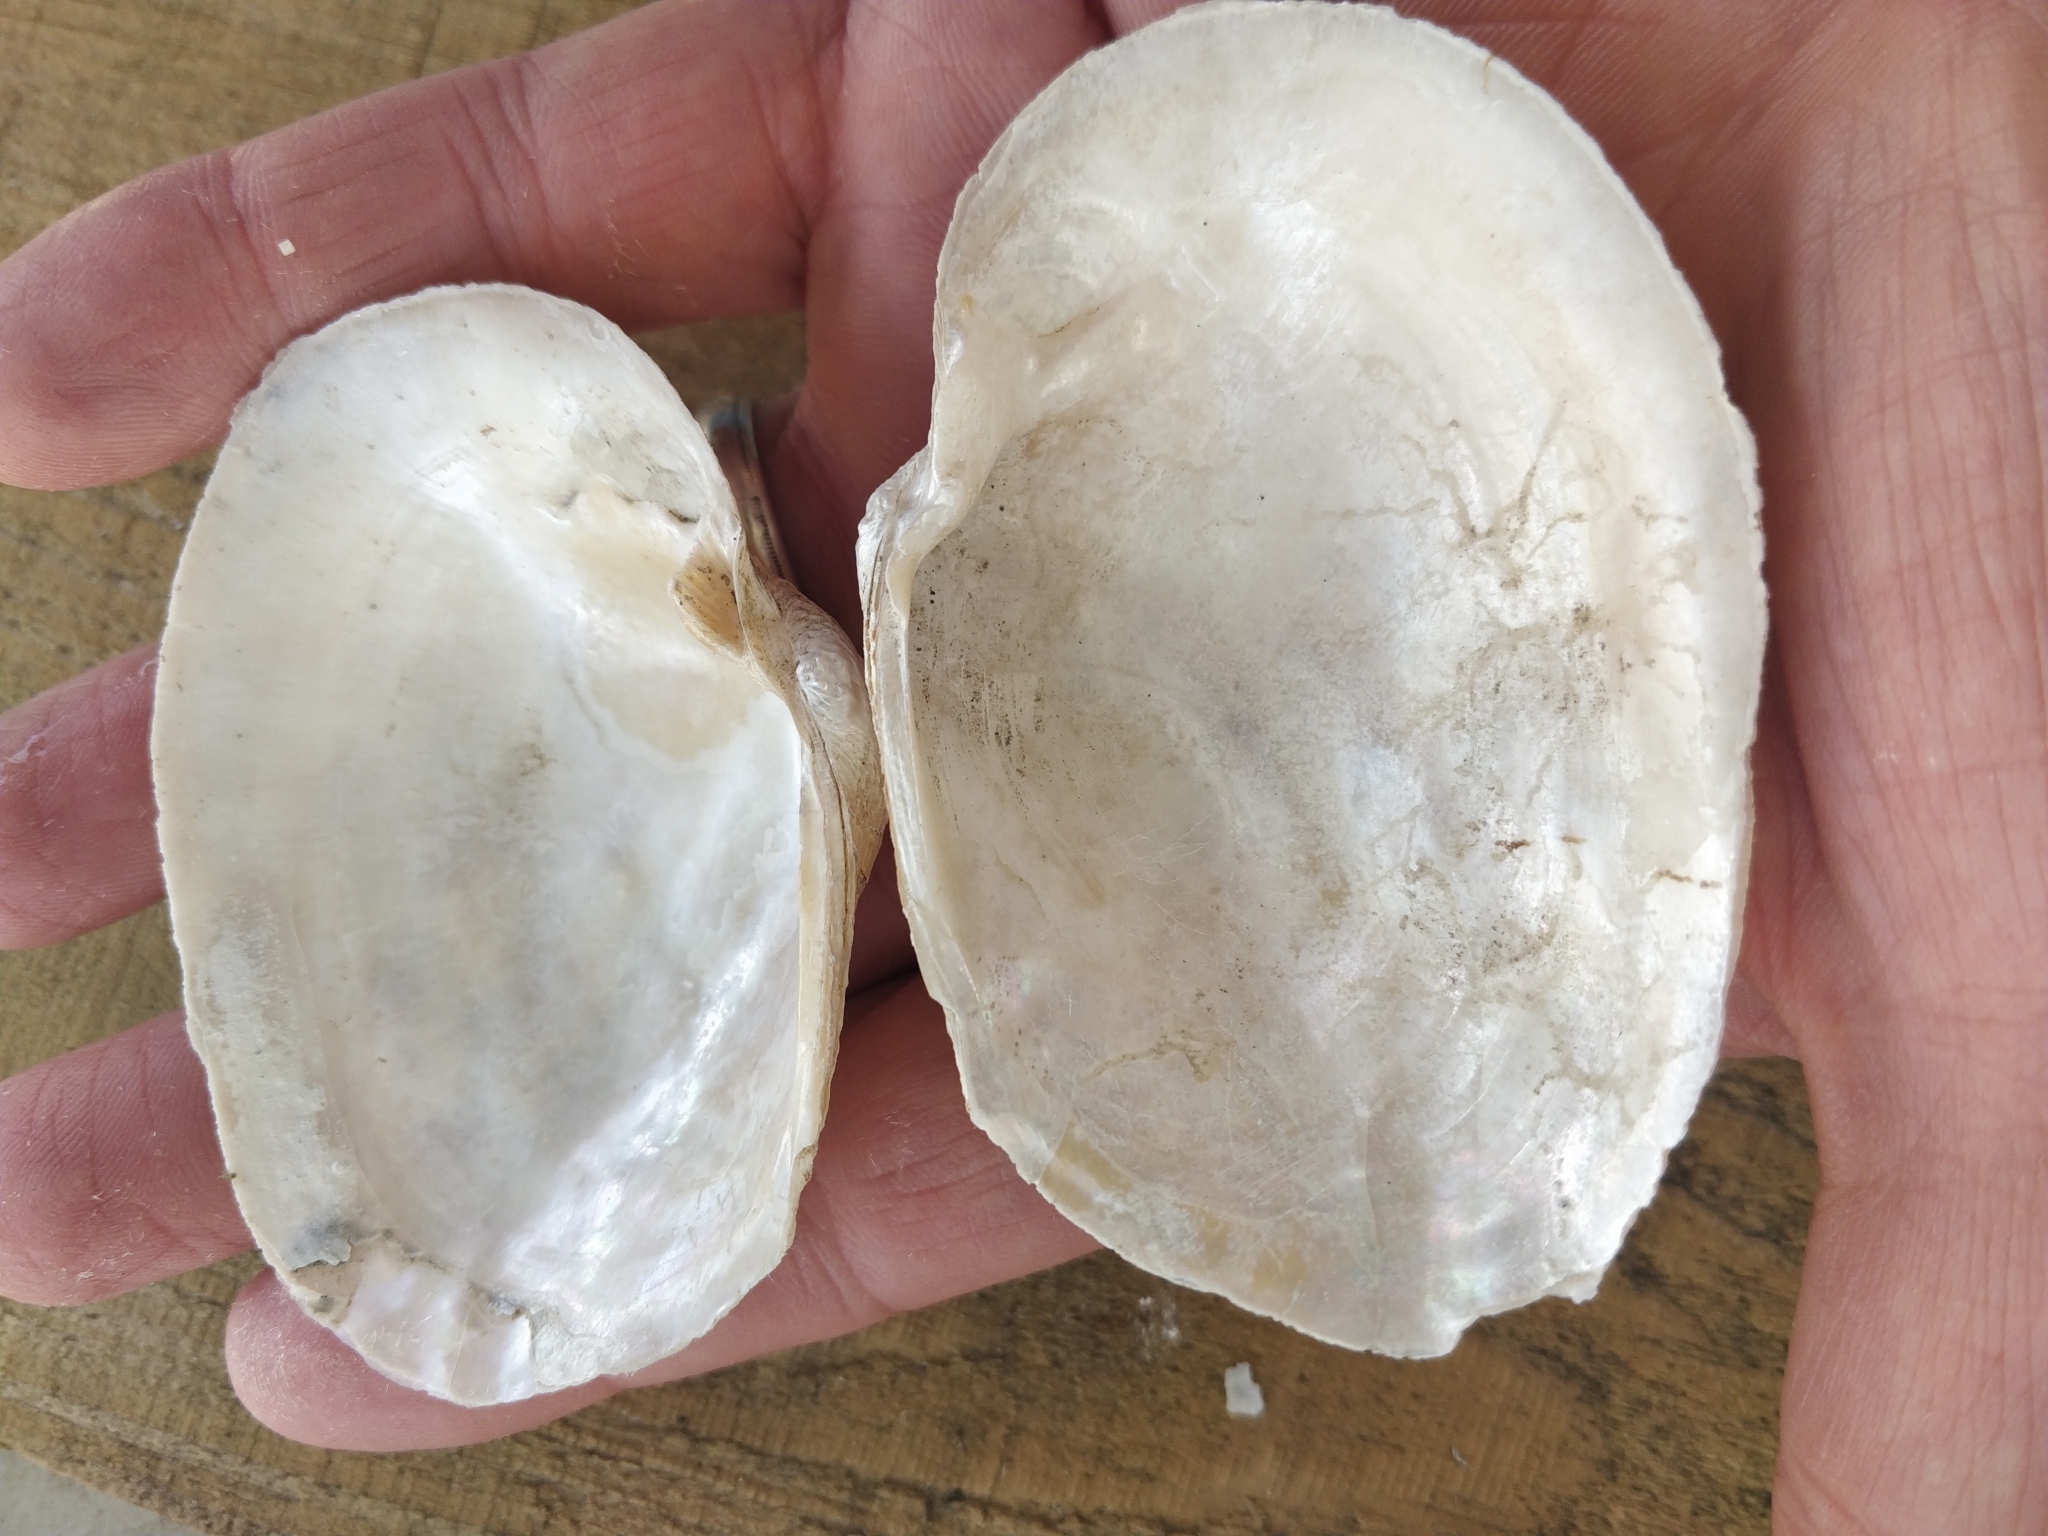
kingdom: Animalia
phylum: Mollusca
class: Bivalvia
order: Unionida
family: Unionidae
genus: Arcidens
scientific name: Arcidens confragosus
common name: Rock pocketbook
